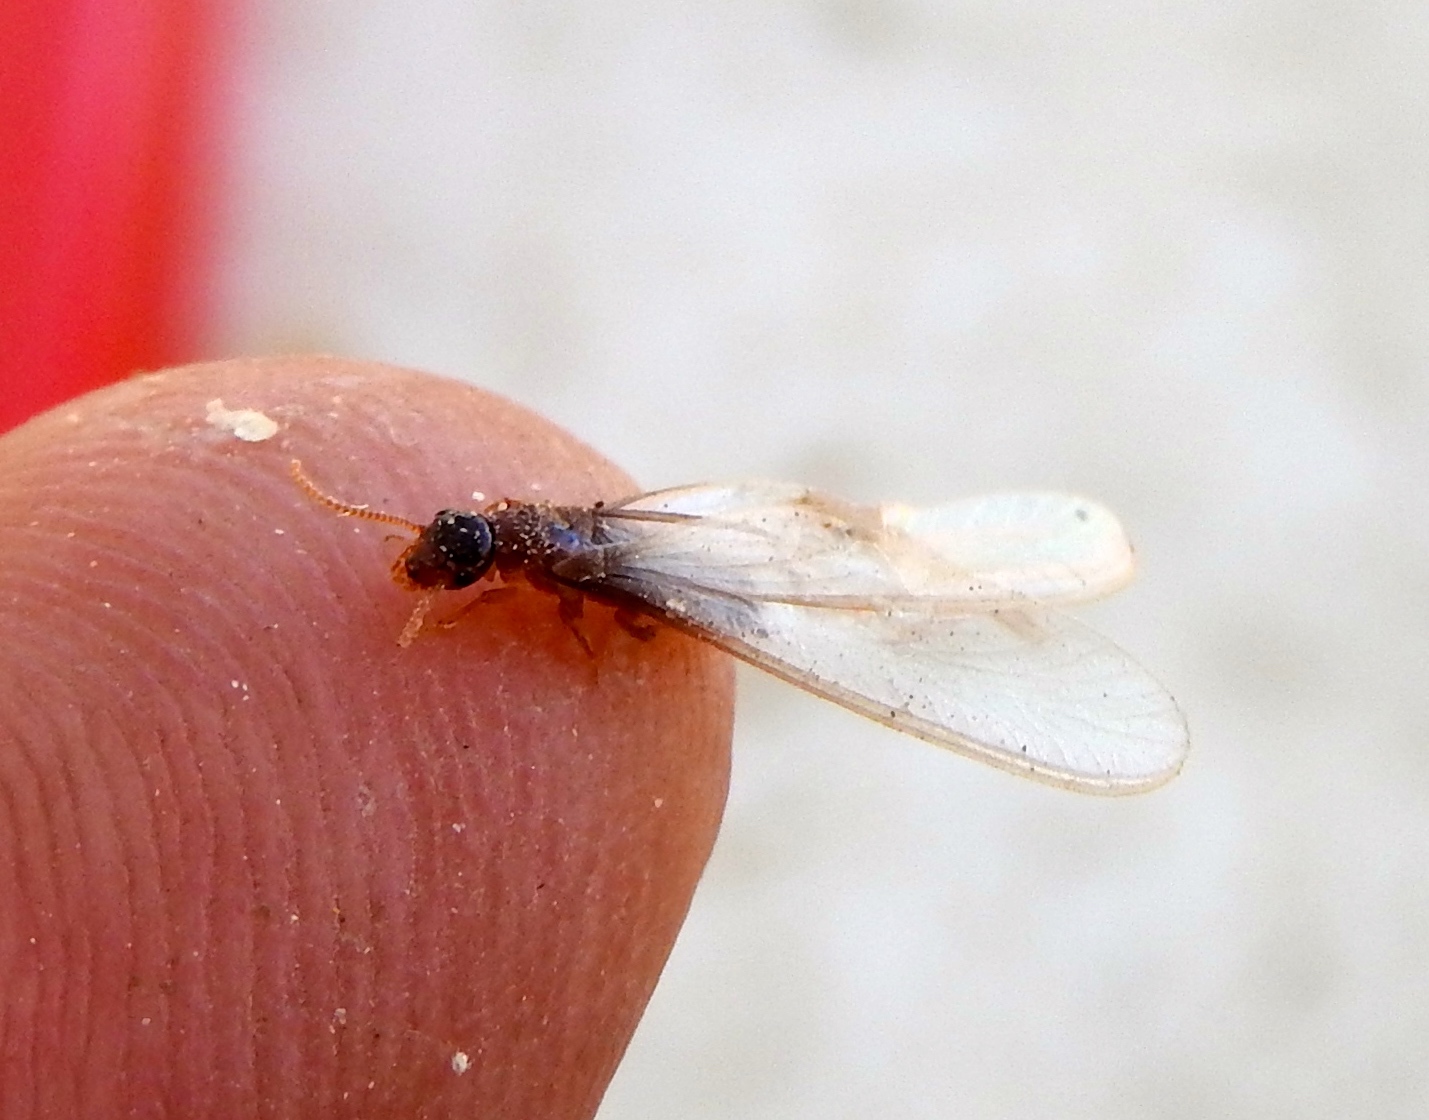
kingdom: Animalia
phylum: Arthropoda
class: Insecta
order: Blattodea
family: Rhinotermitidae
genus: Coptotermes
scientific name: Coptotermes gestroi
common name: Subterranean termite
